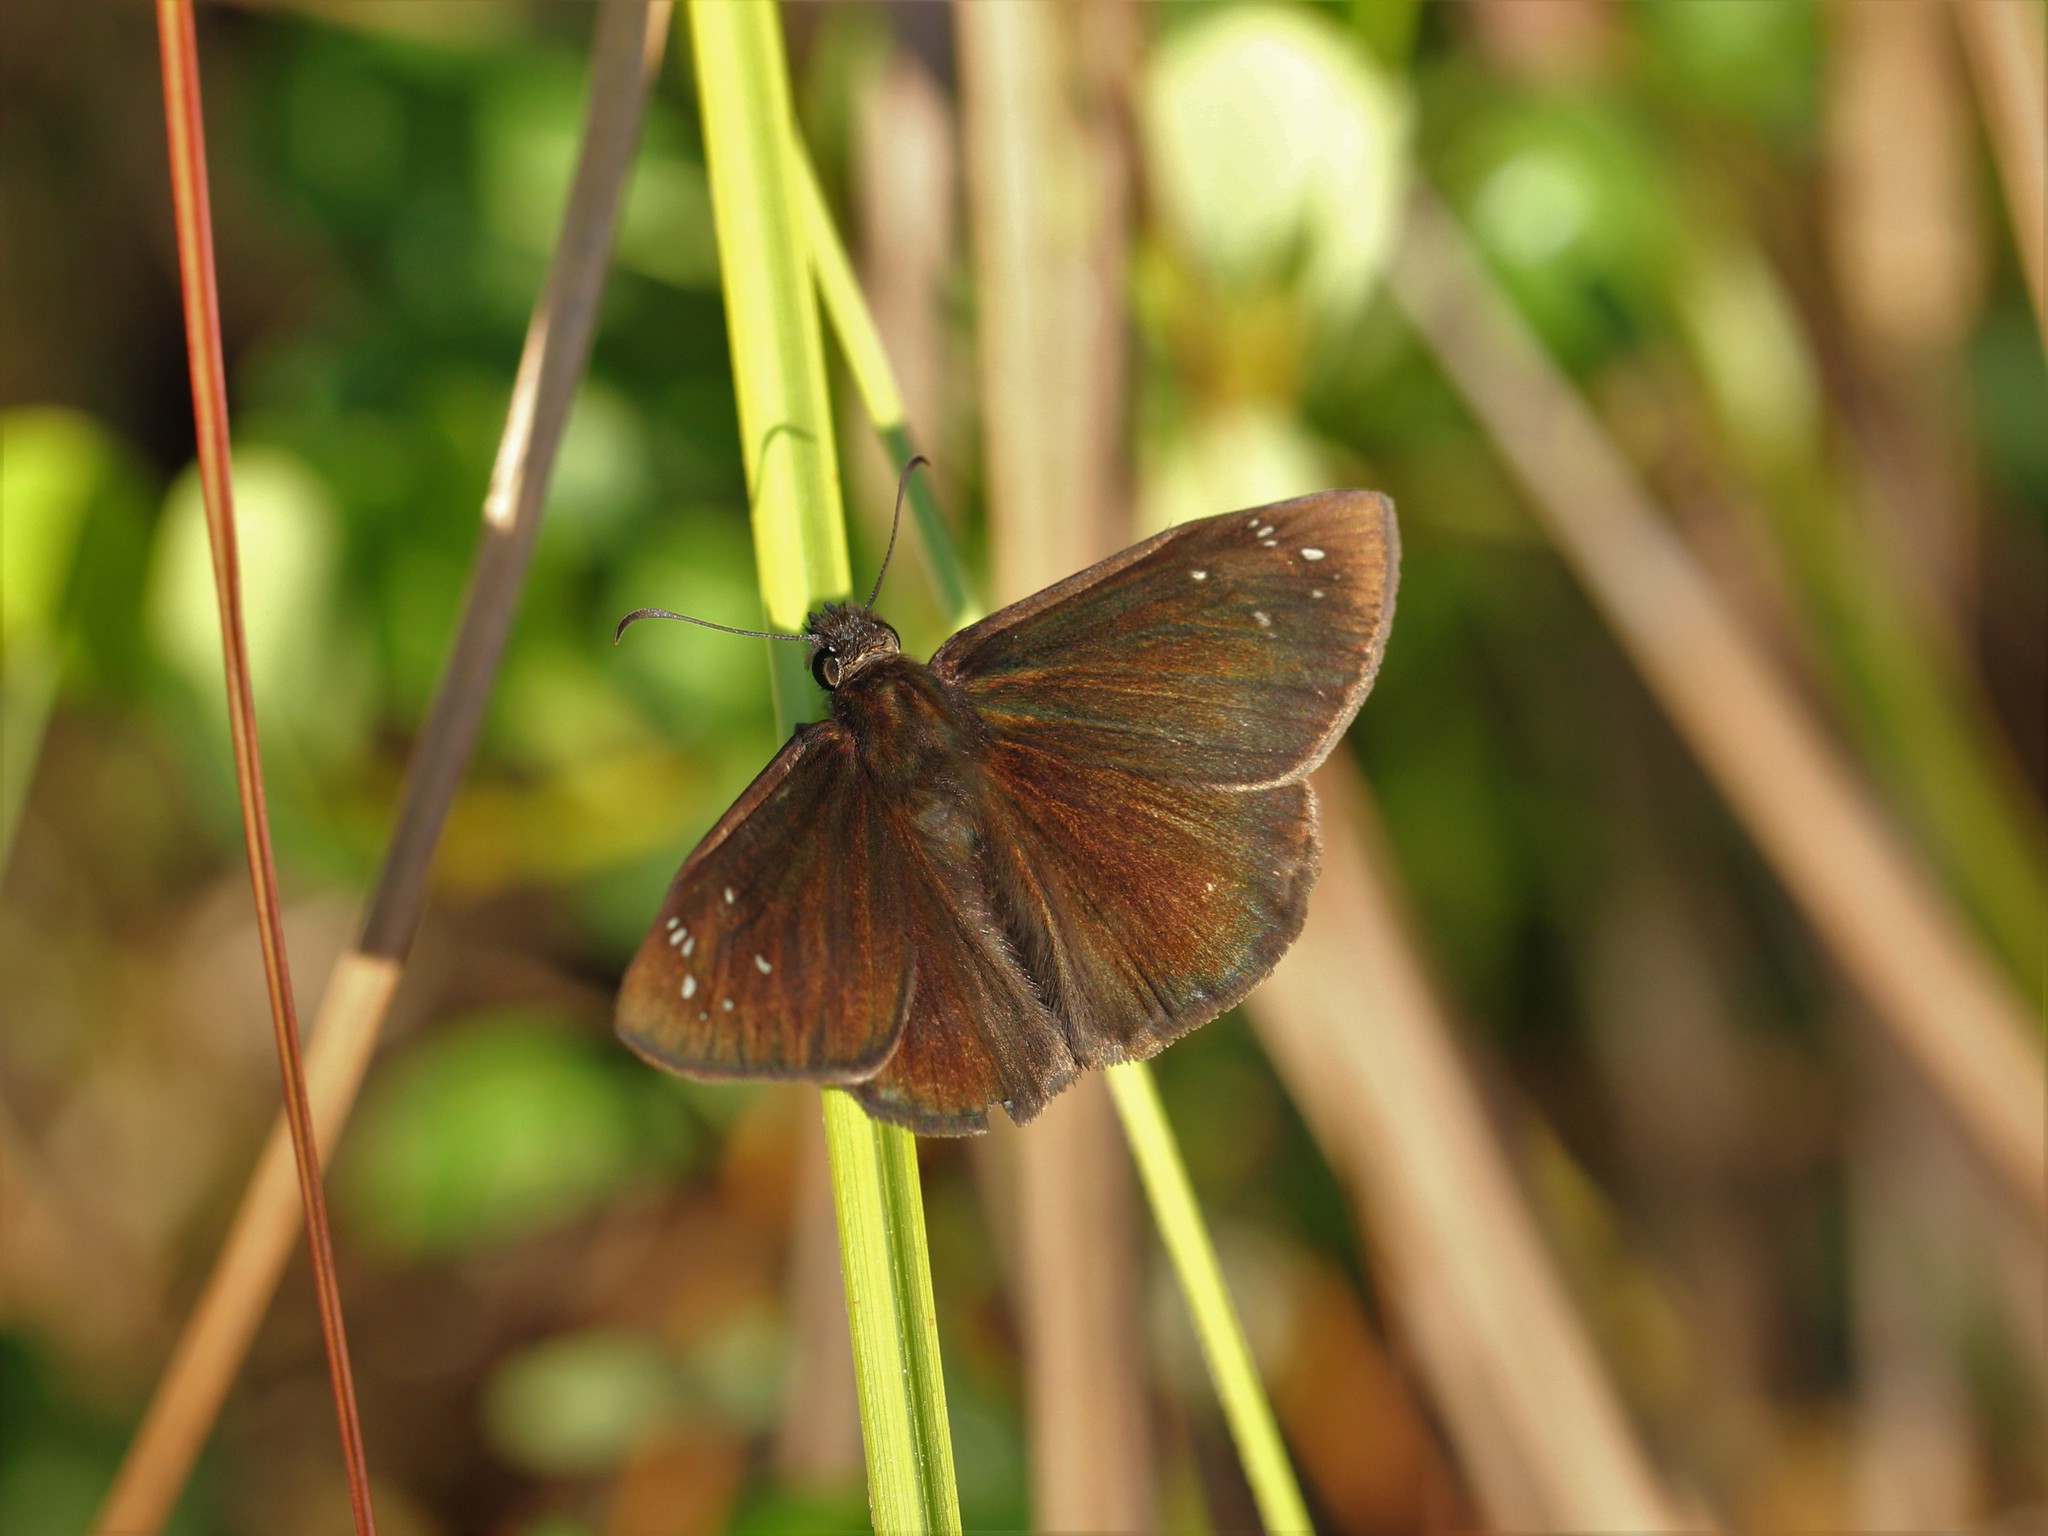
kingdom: Animalia
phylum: Arthropoda
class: Insecta
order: Lepidoptera
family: Hesperiidae
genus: Ephyriades
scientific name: Ephyriades brunnea
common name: Florida duskywing
